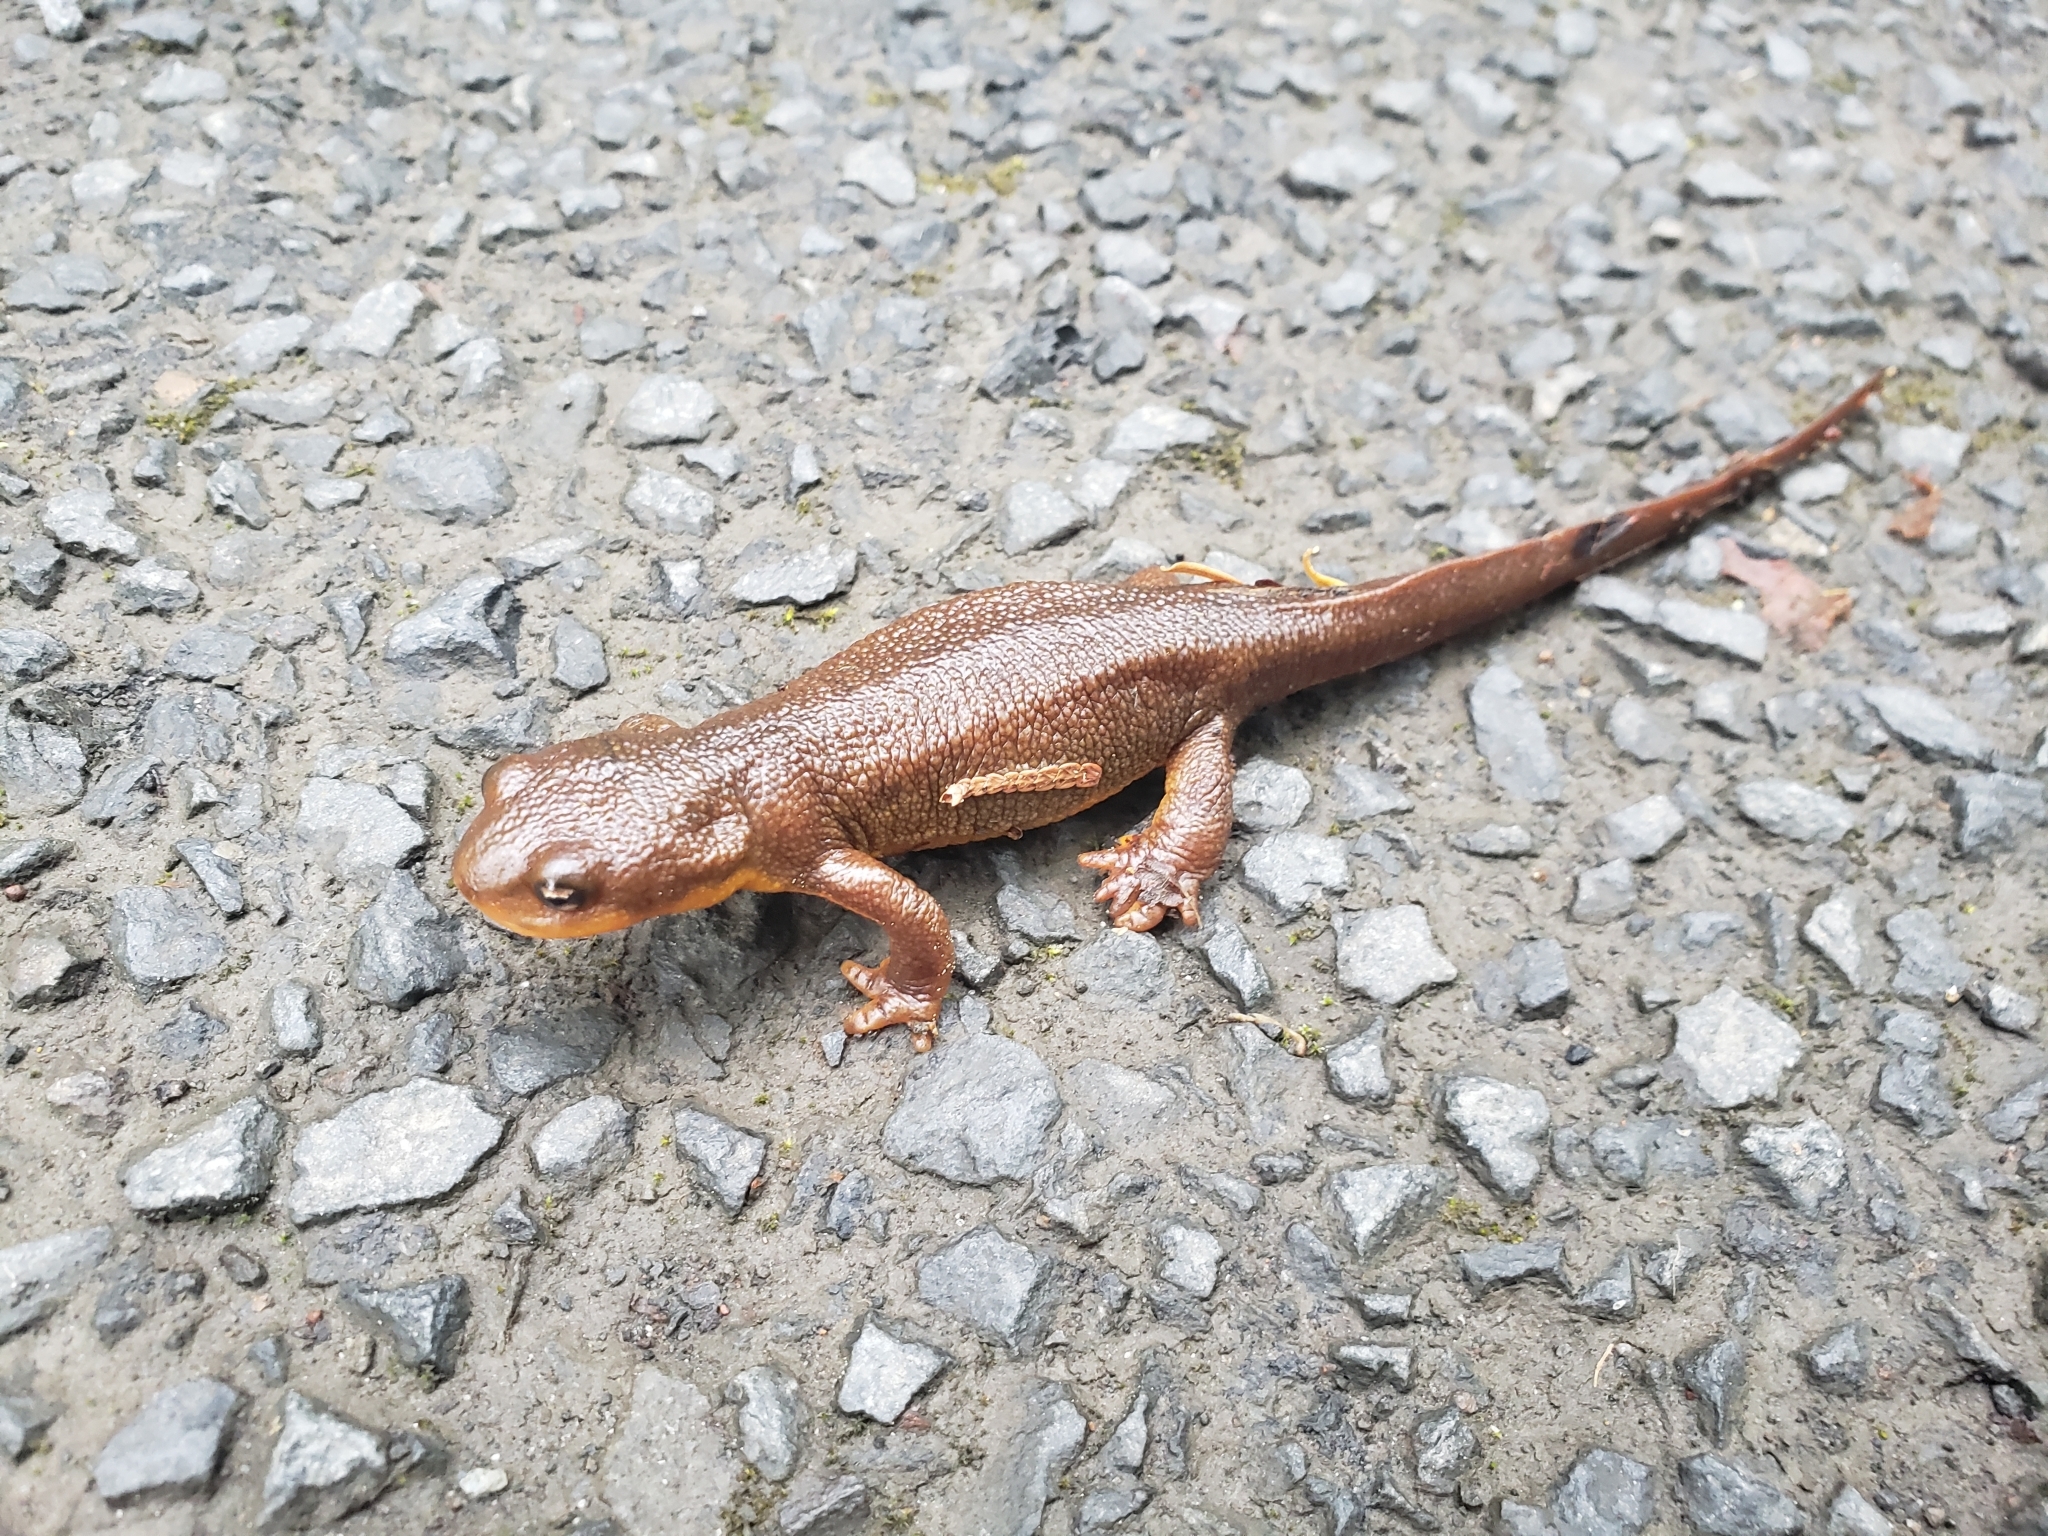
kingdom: Animalia
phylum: Chordata
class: Amphibia
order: Caudata
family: Salamandridae
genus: Taricha
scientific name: Taricha granulosa
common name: Roughskin newt
